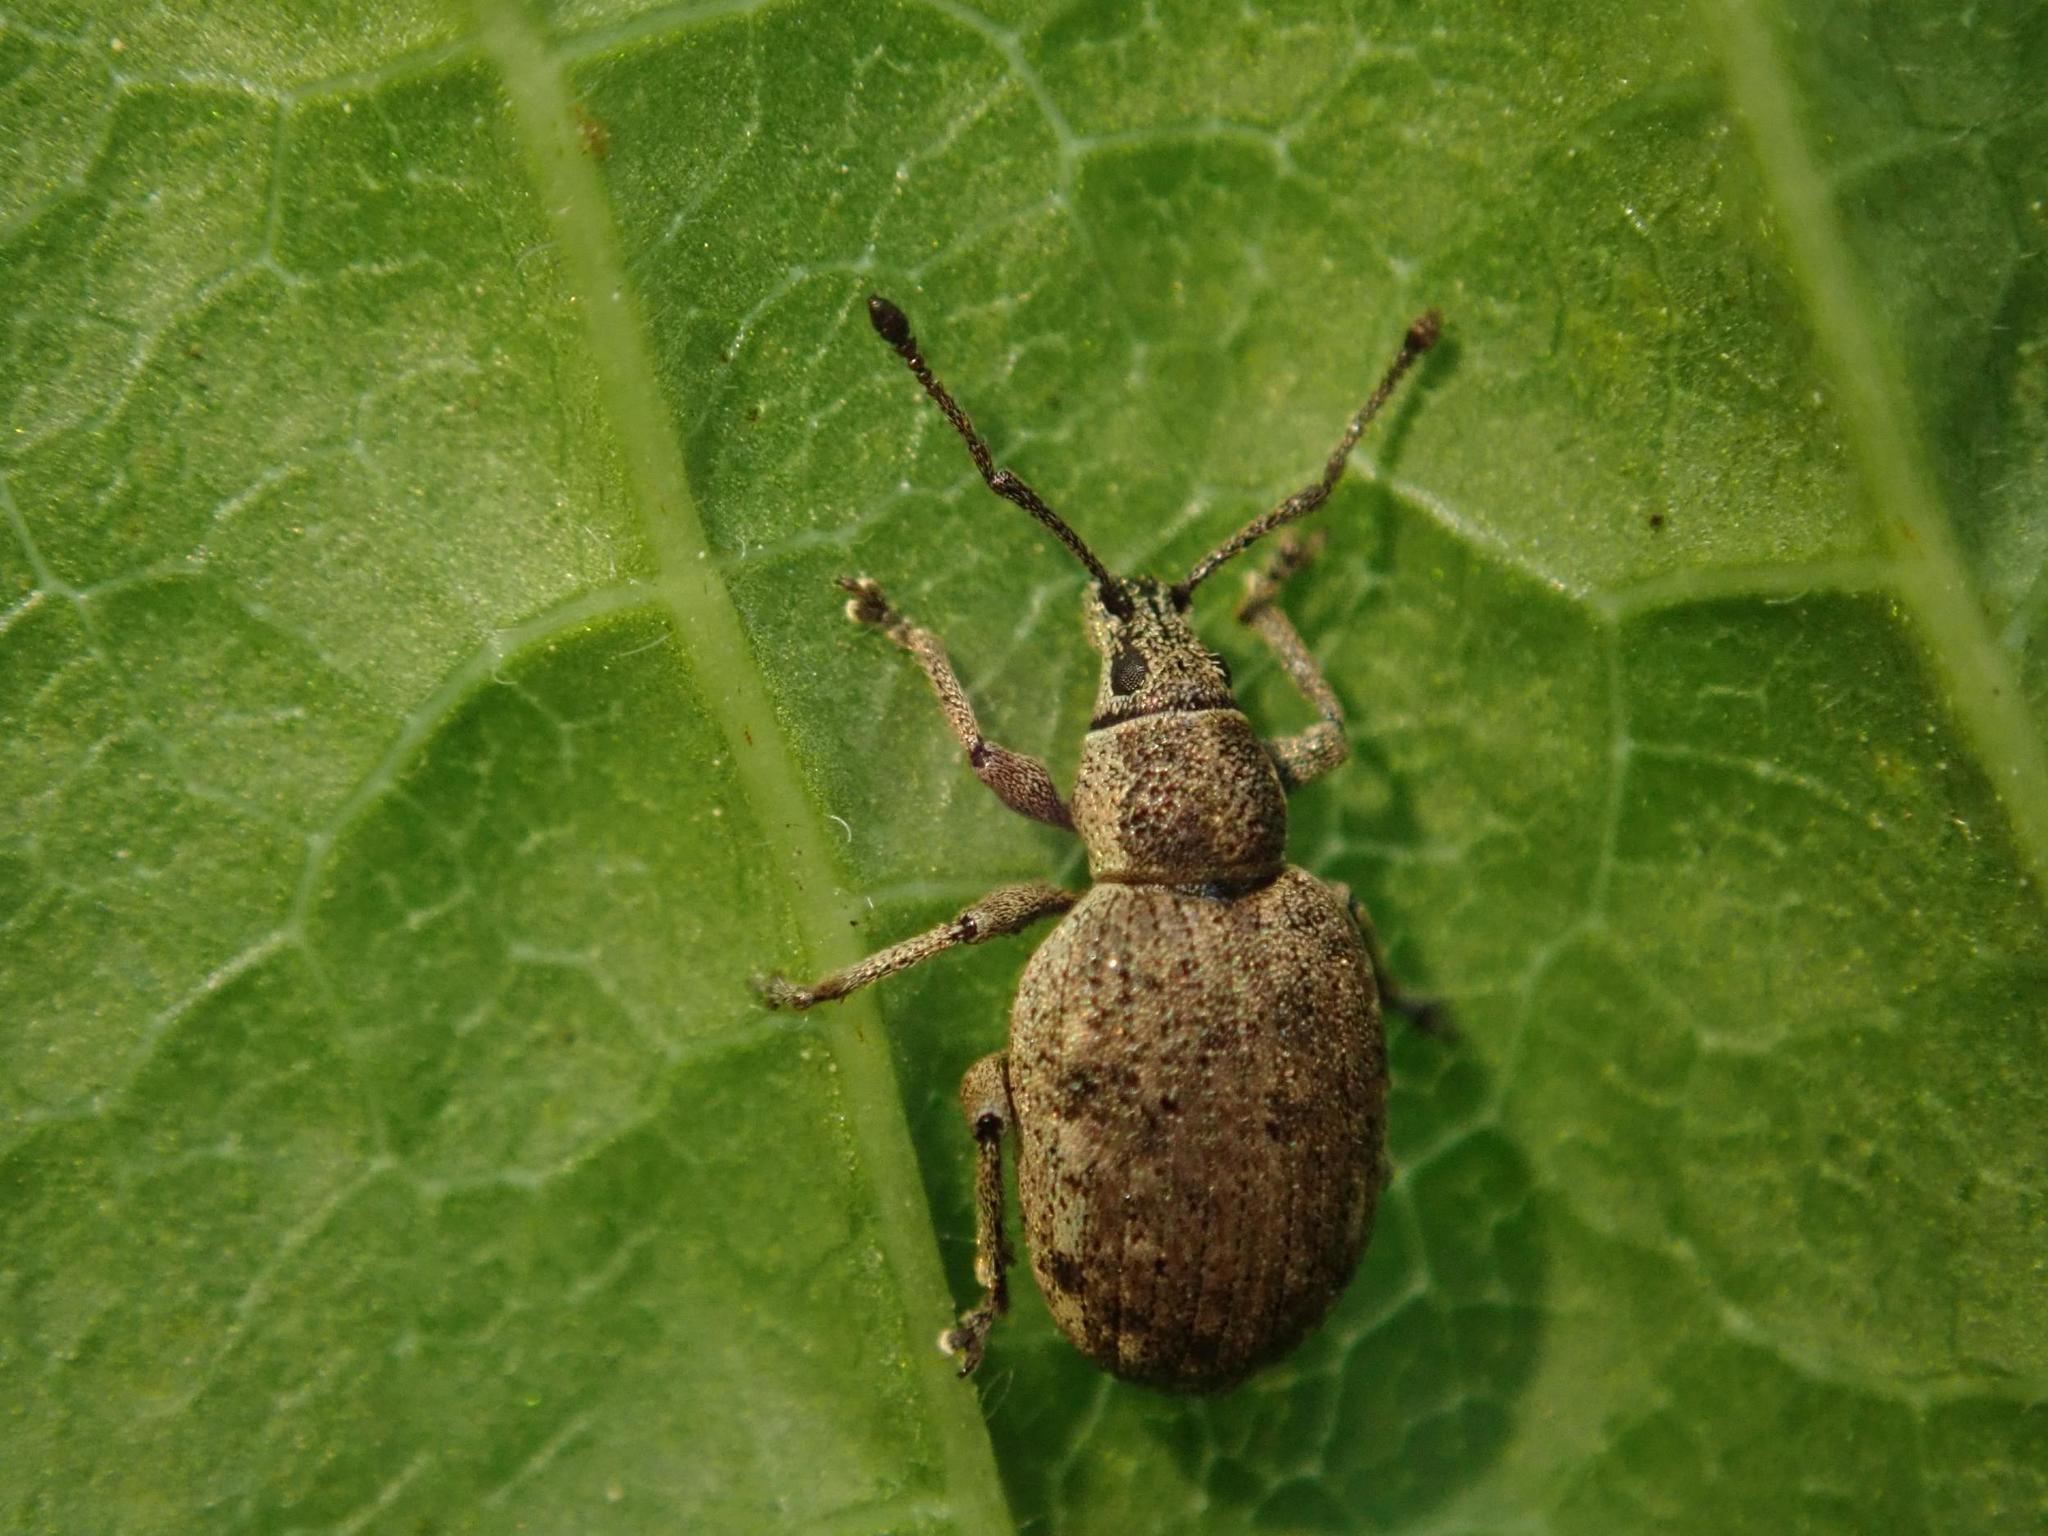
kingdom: Animalia
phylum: Arthropoda
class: Insecta
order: Coleoptera
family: Curculionidae
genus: Peritelus
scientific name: Peritelus sphaeroides
